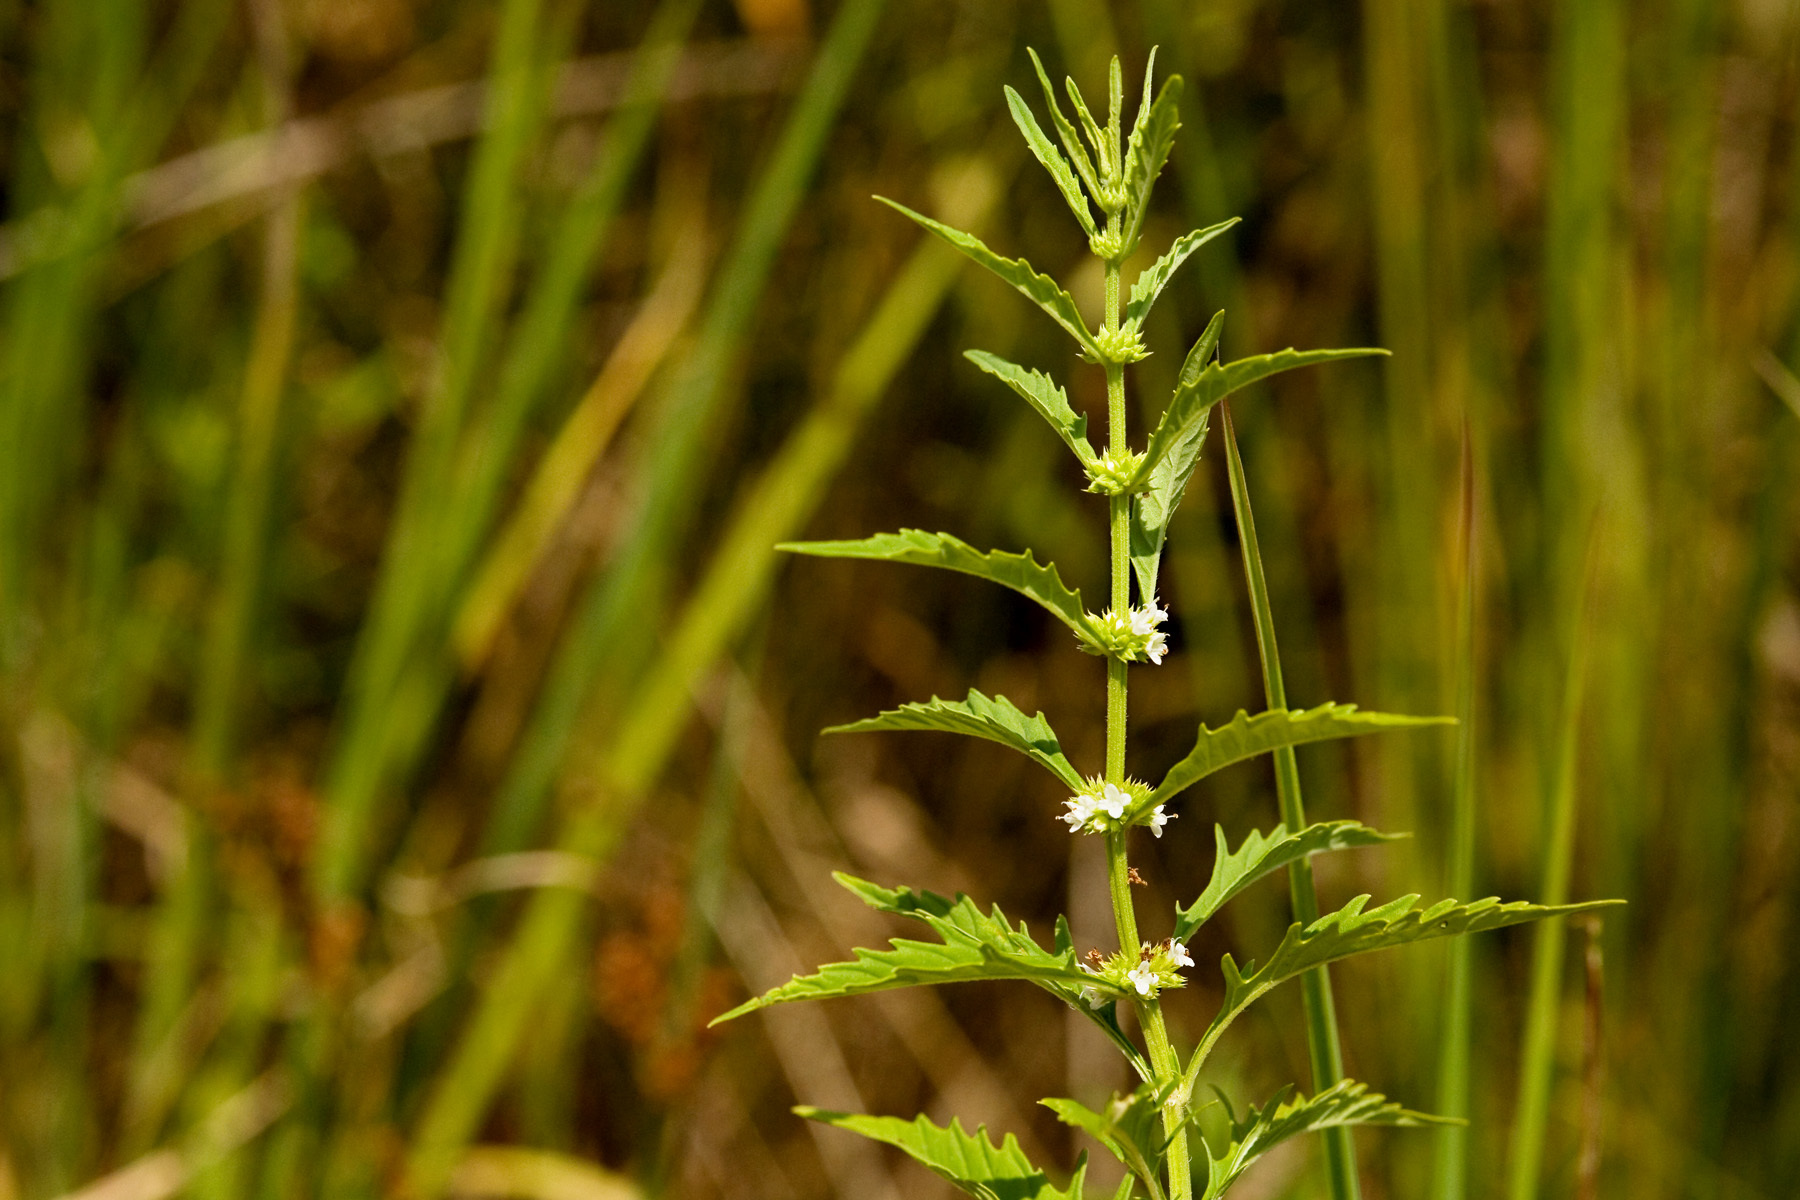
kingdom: Plantae
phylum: Tracheophyta
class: Magnoliopsida
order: Lamiales
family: Lamiaceae
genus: Lycopus
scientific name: Lycopus americanus
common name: American bugleweed
